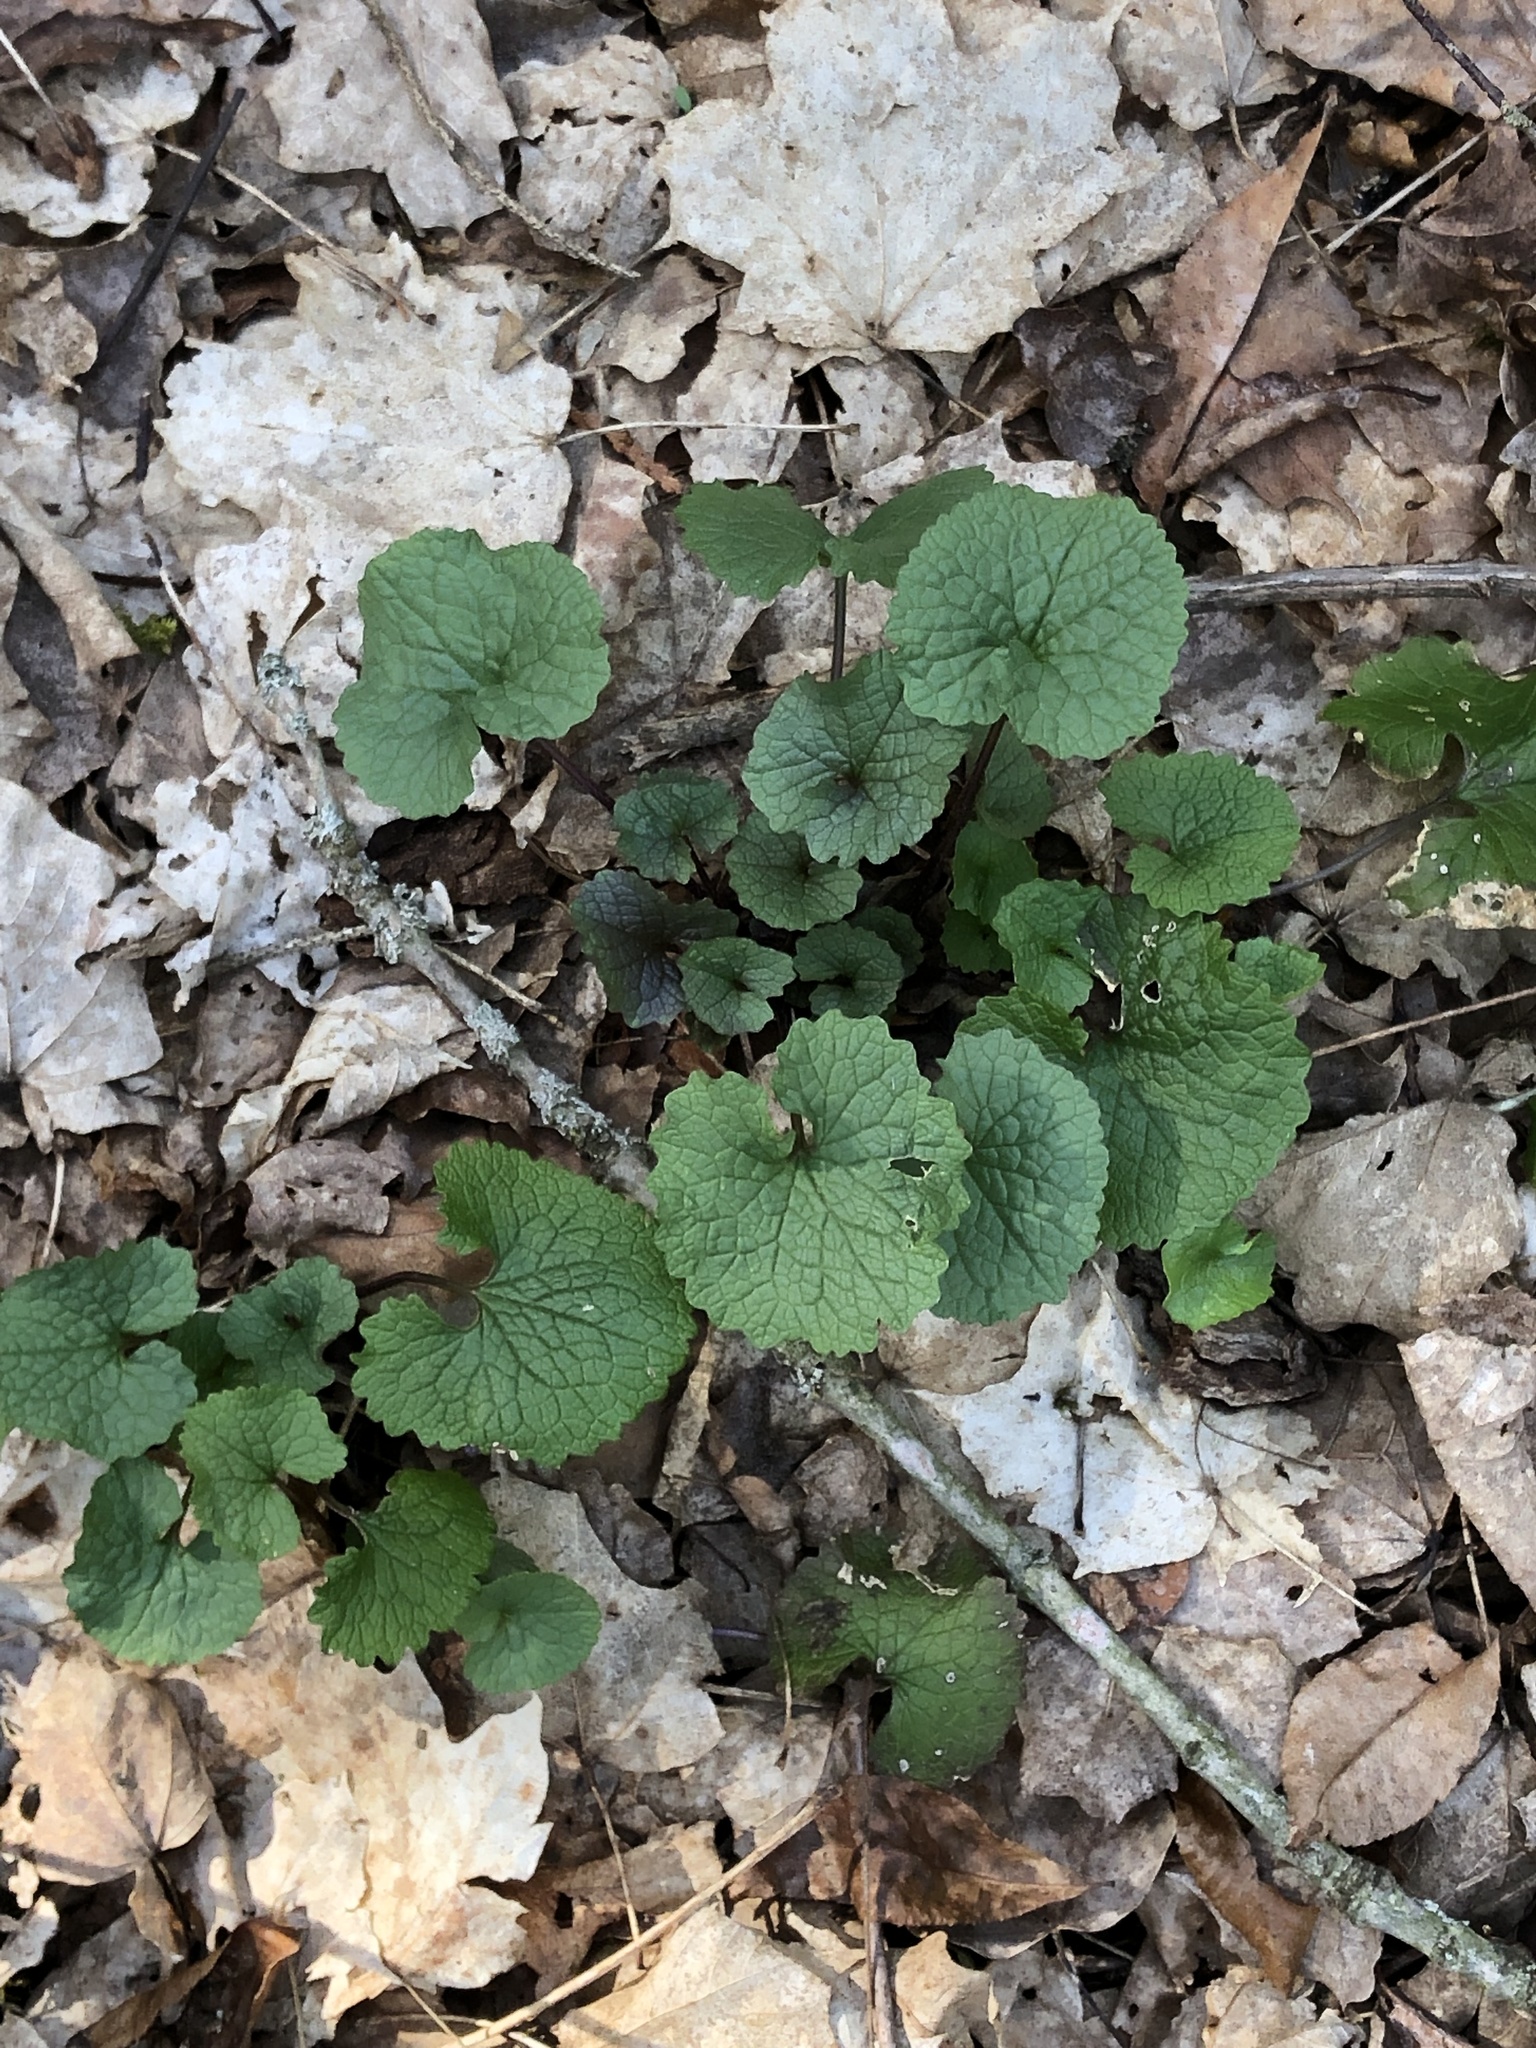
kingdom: Plantae
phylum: Tracheophyta
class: Magnoliopsida
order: Brassicales
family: Brassicaceae
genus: Alliaria
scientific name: Alliaria petiolata
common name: Garlic mustard
